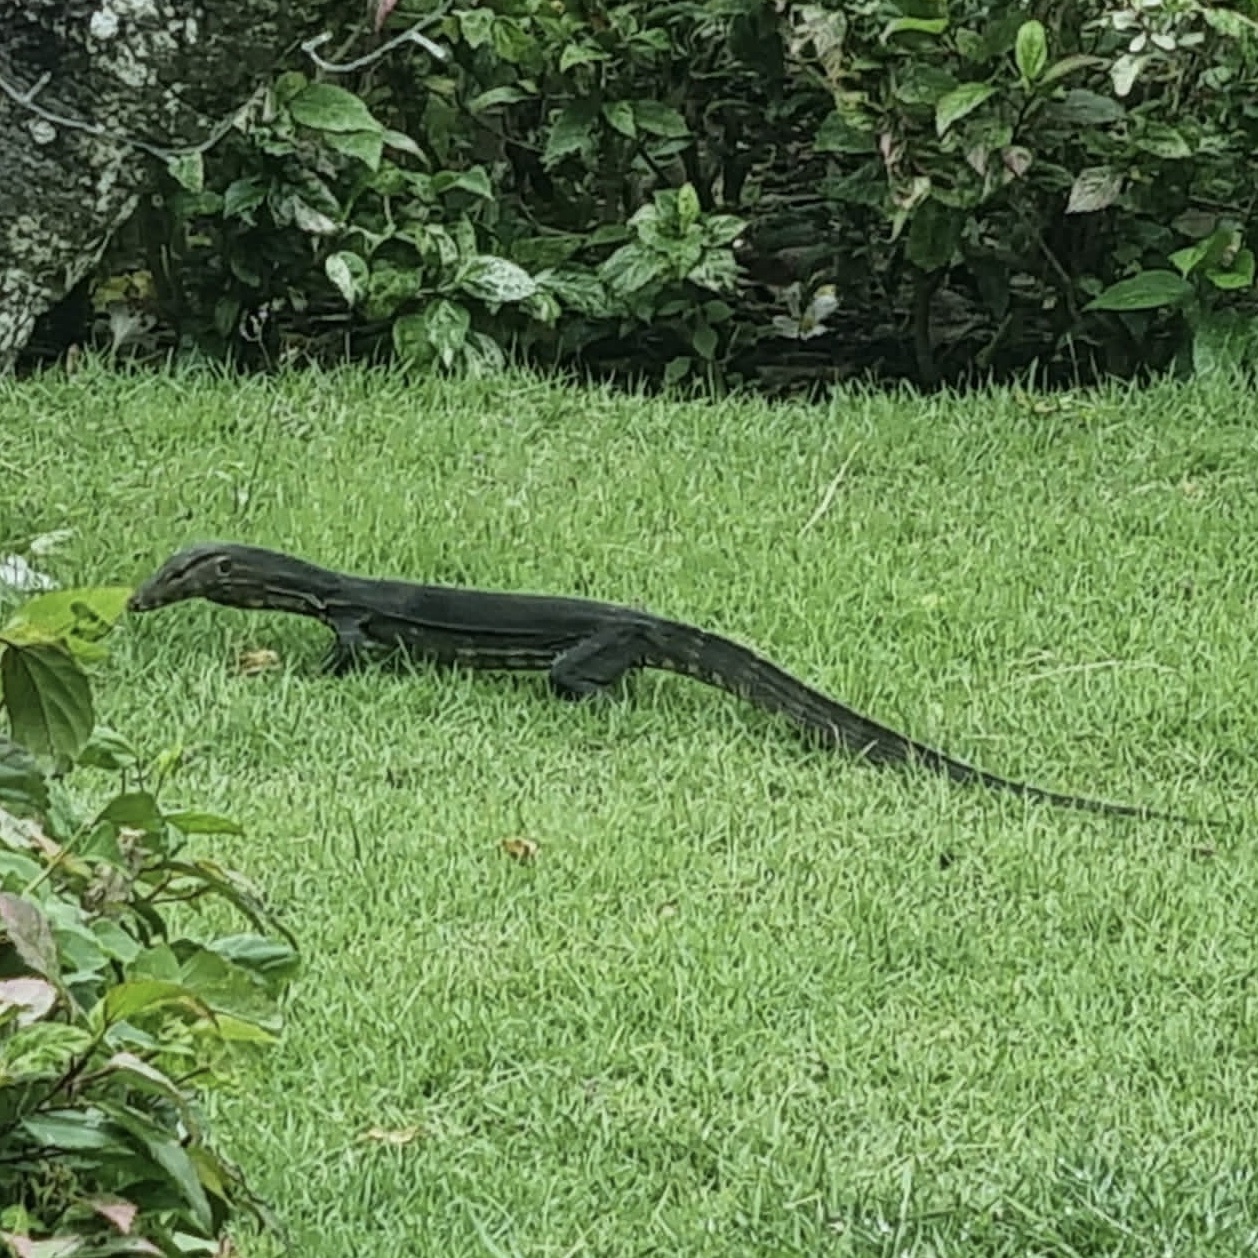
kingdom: Animalia
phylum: Chordata
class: Squamata
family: Varanidae
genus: Varanus
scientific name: Varanus salvator
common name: Common water monitor
